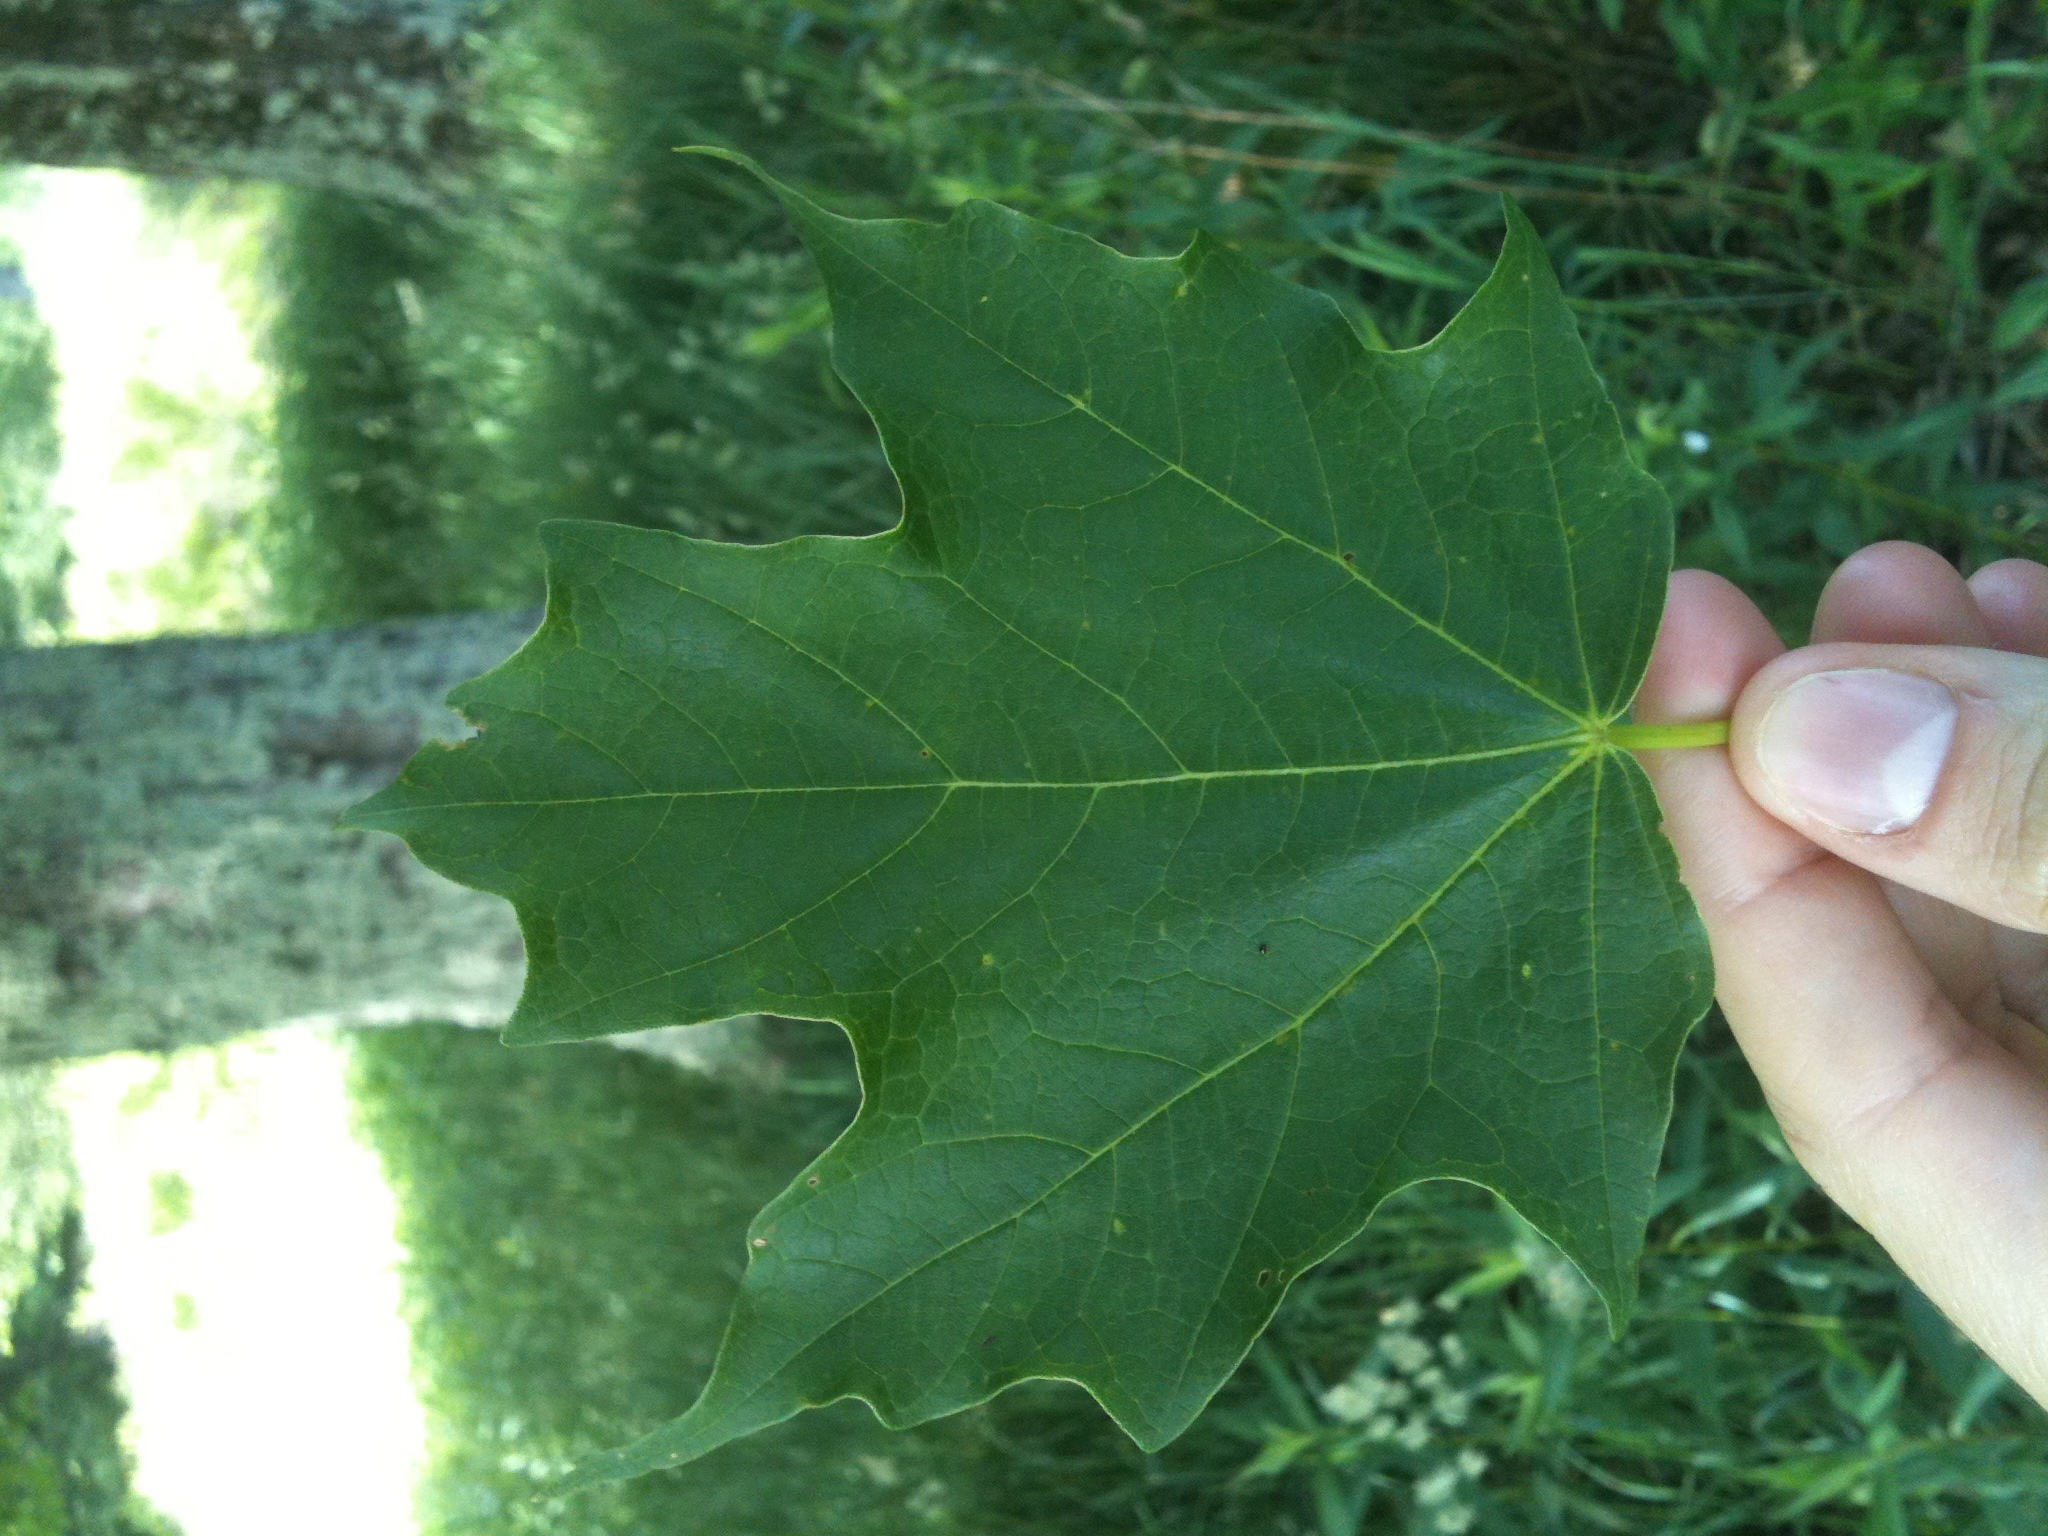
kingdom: Plantae
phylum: Tracheophyta
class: Magnoliopsida
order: Sapindales
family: Sapindaceae
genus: Acer
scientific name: Acer saccharum
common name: Sugar maple
